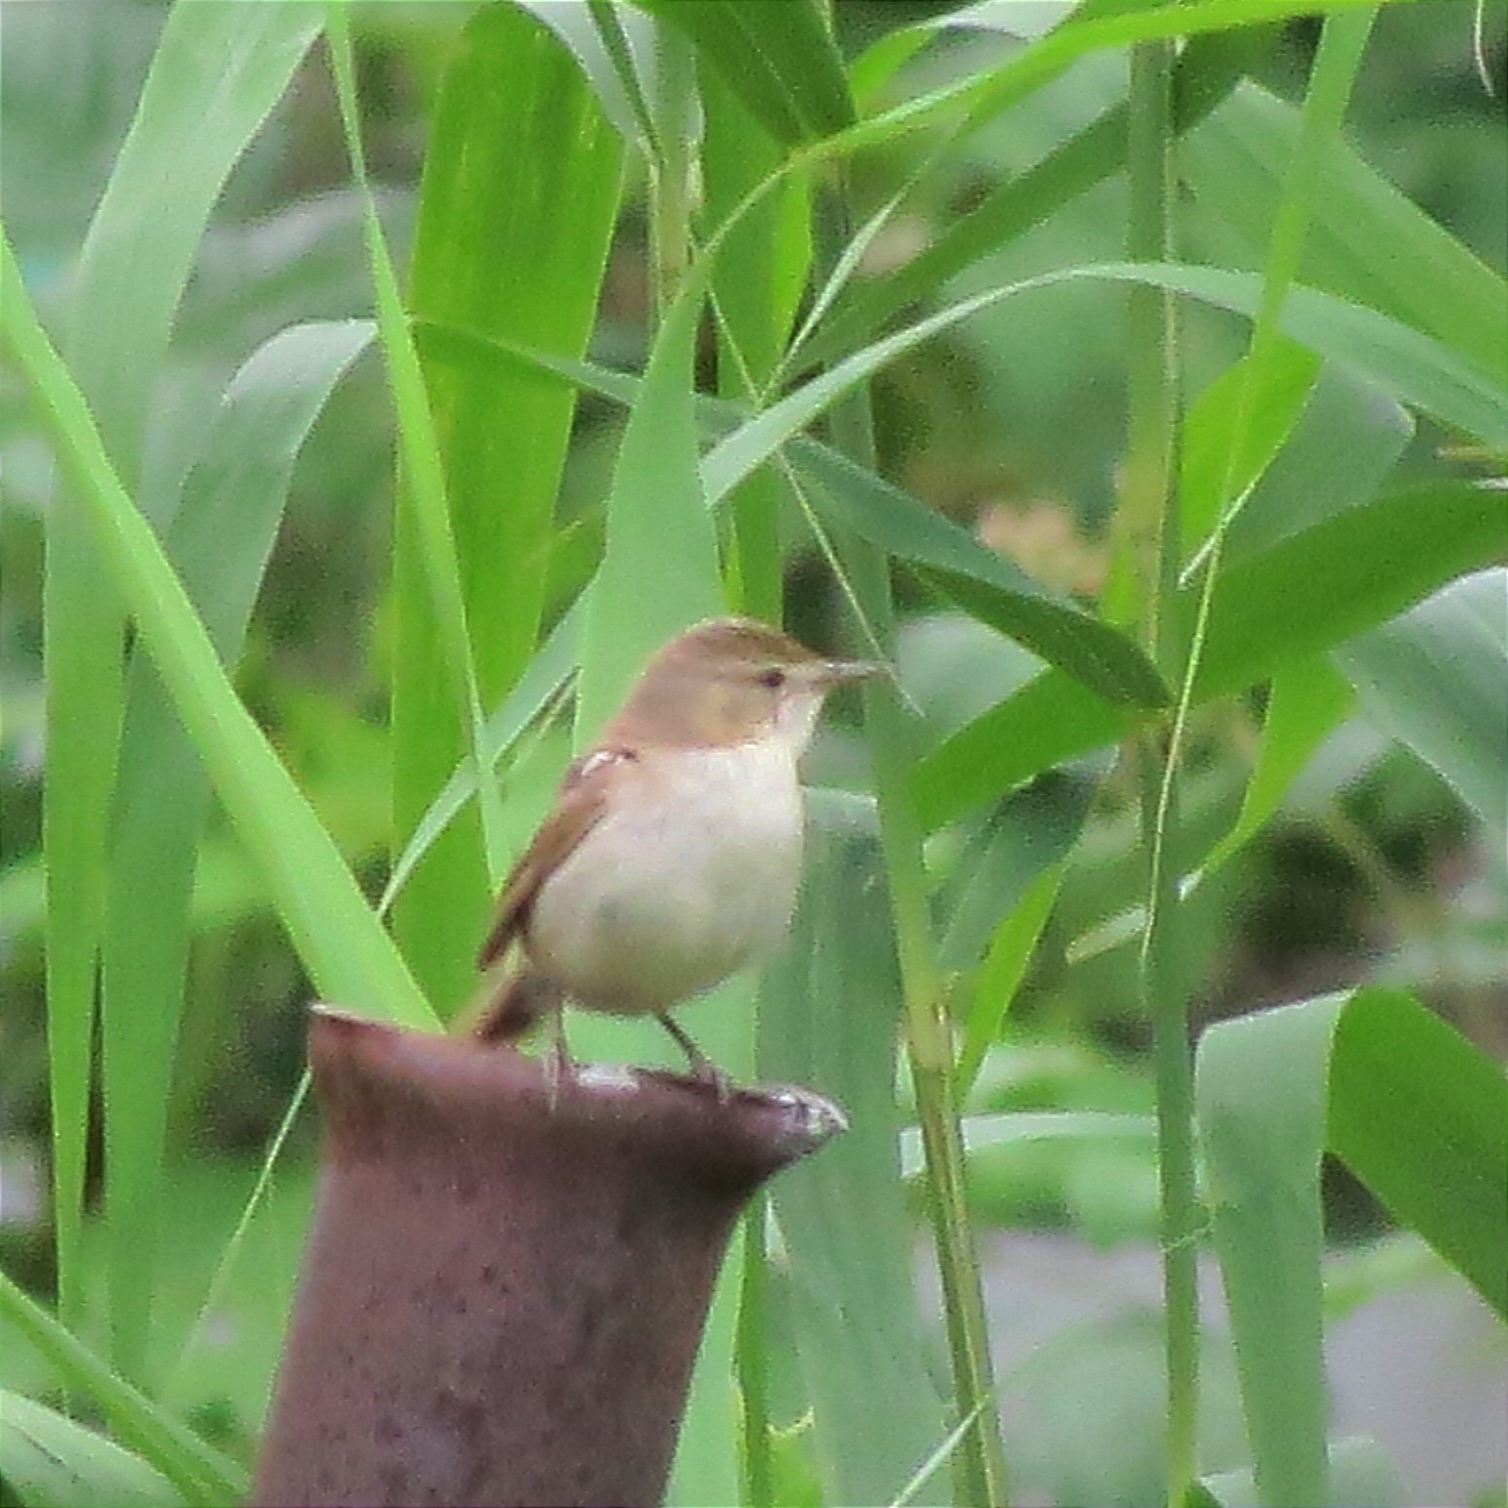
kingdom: Animalia
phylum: Chordata
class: Aves
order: Passeriformes
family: Acrocephalidae
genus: Iduna
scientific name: Iduna caligata
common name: Booted warbler
